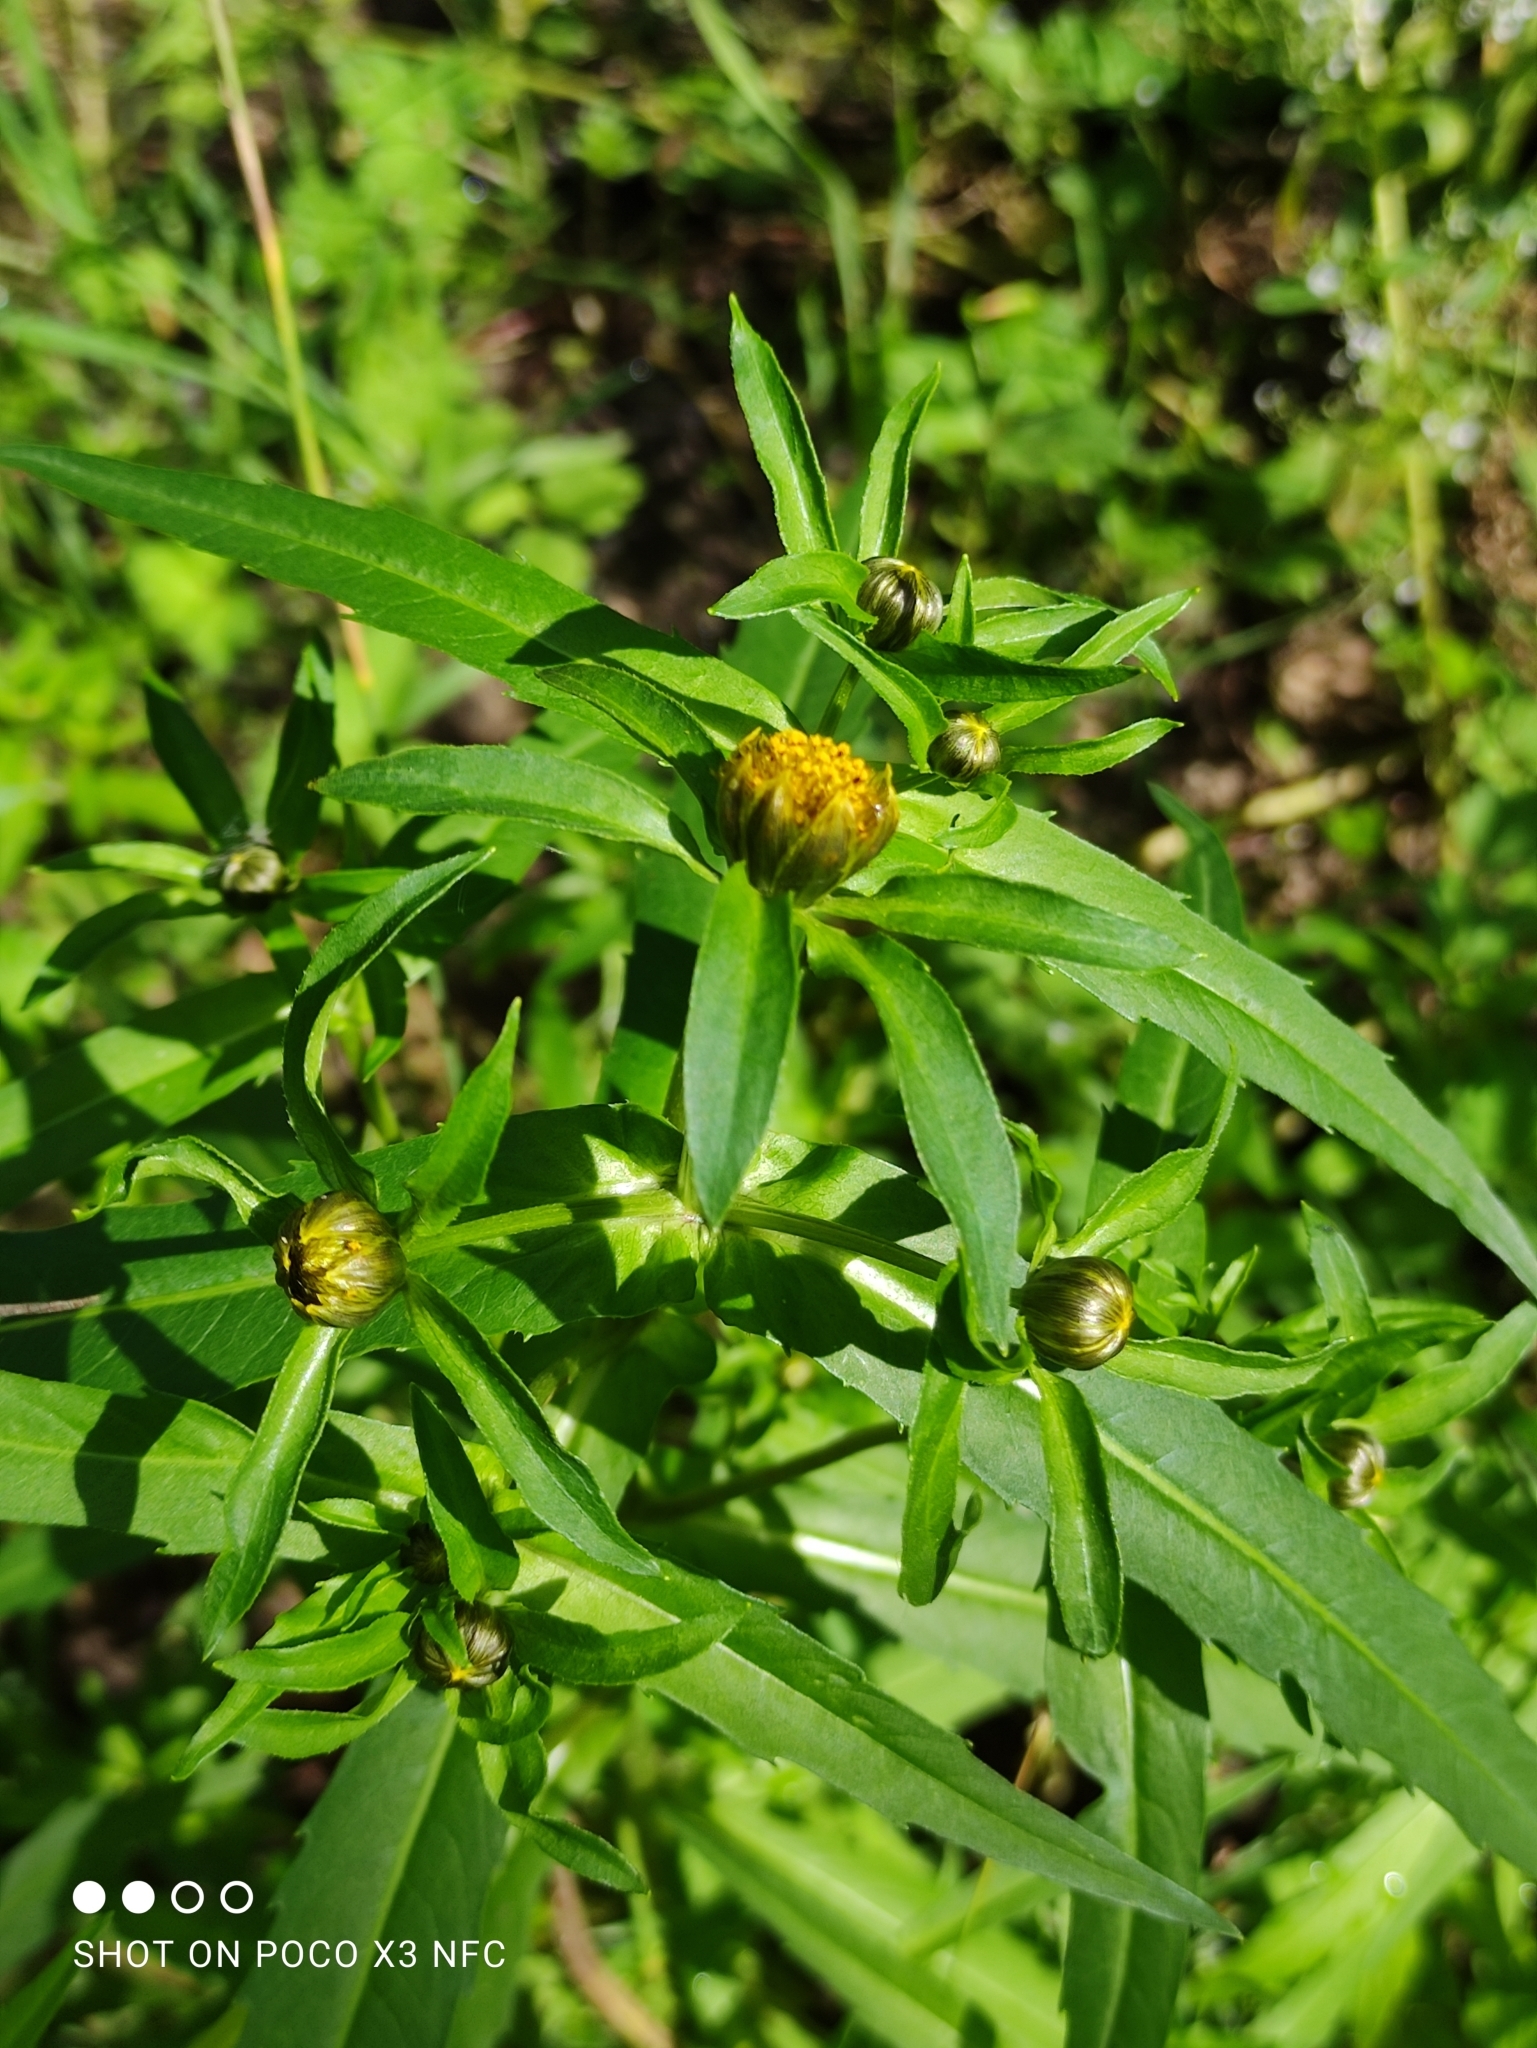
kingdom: Plantae
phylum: Tracheophyta
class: Magnoliopsida
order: Asterales
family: Asteraceae
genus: Bidens
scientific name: Bidens cernua
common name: Nodding bur-marigold
